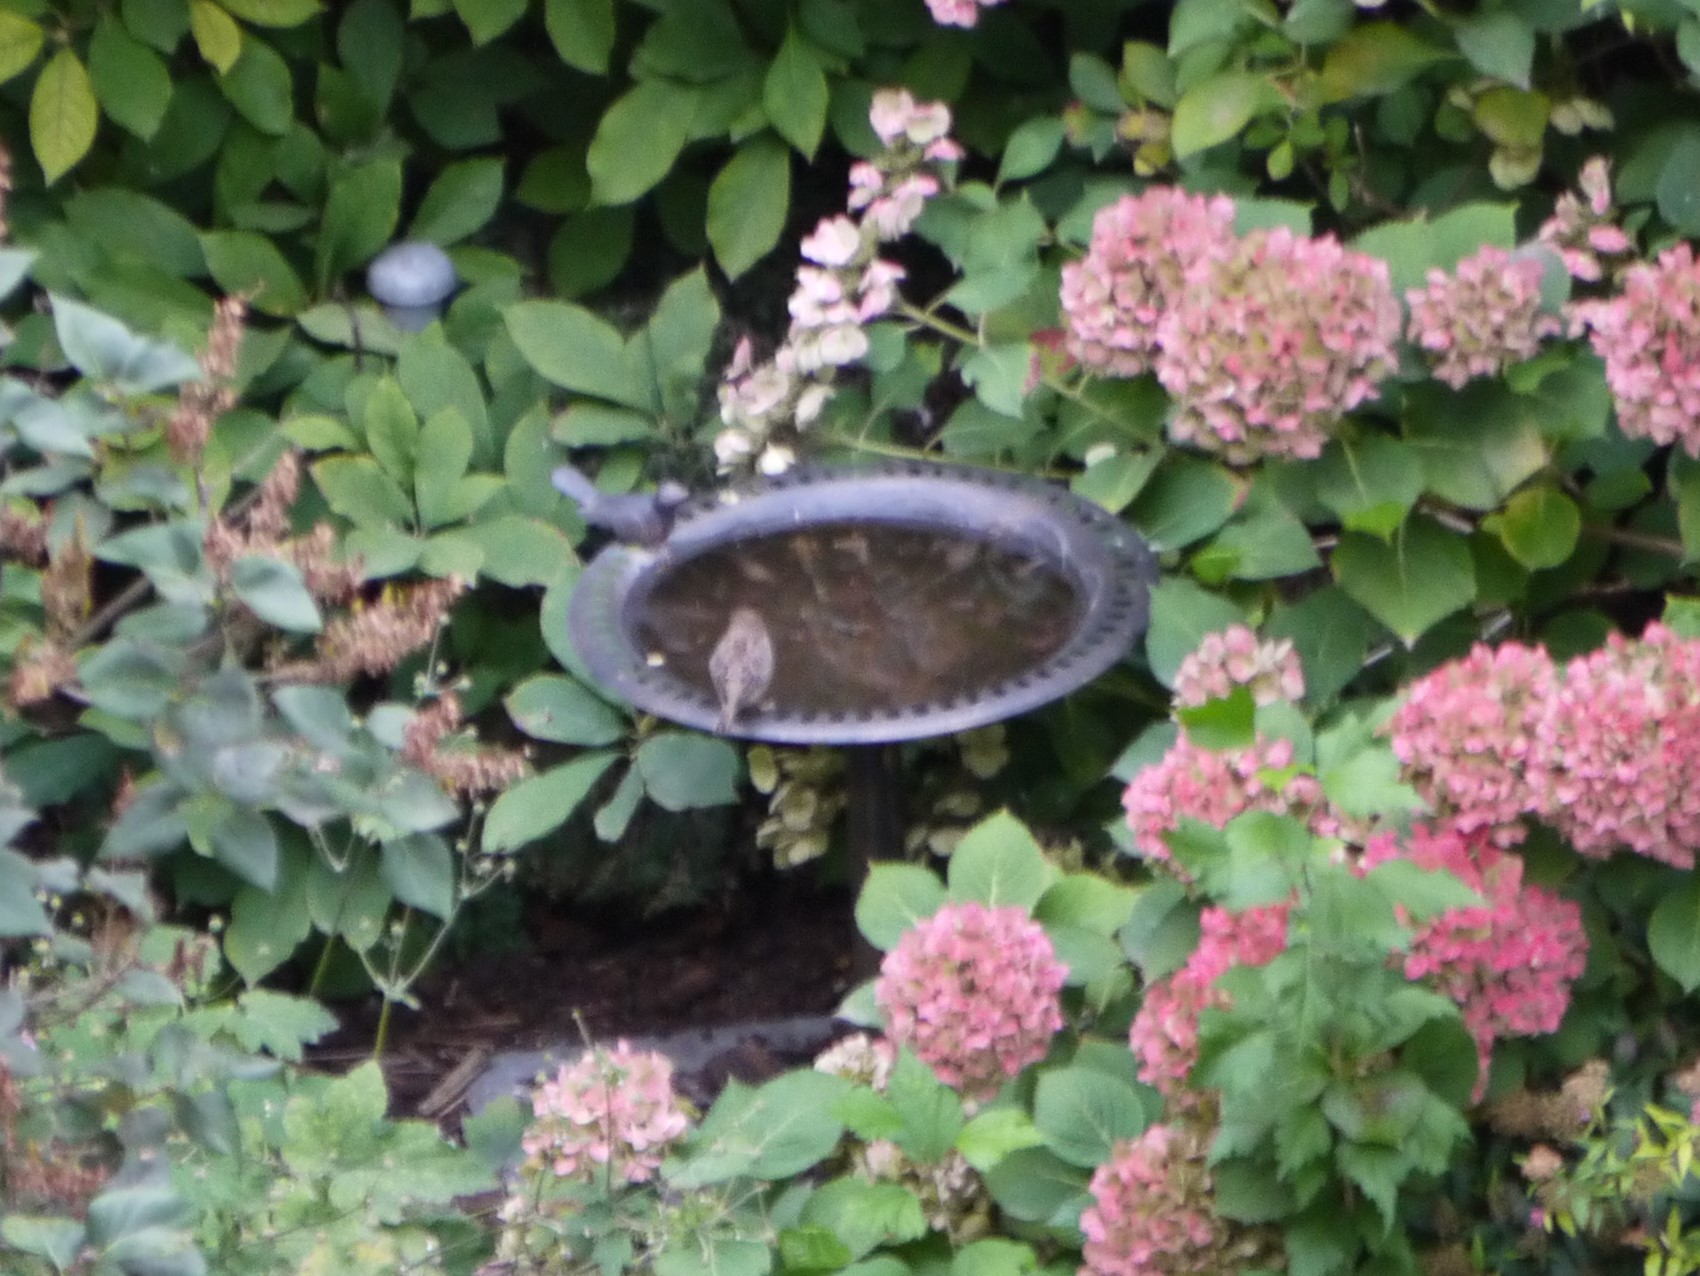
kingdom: Animalia
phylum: Chordata
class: Aves
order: Passeriformes
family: Passeridae
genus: Passer
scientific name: Passer domesticus
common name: House sparrow
